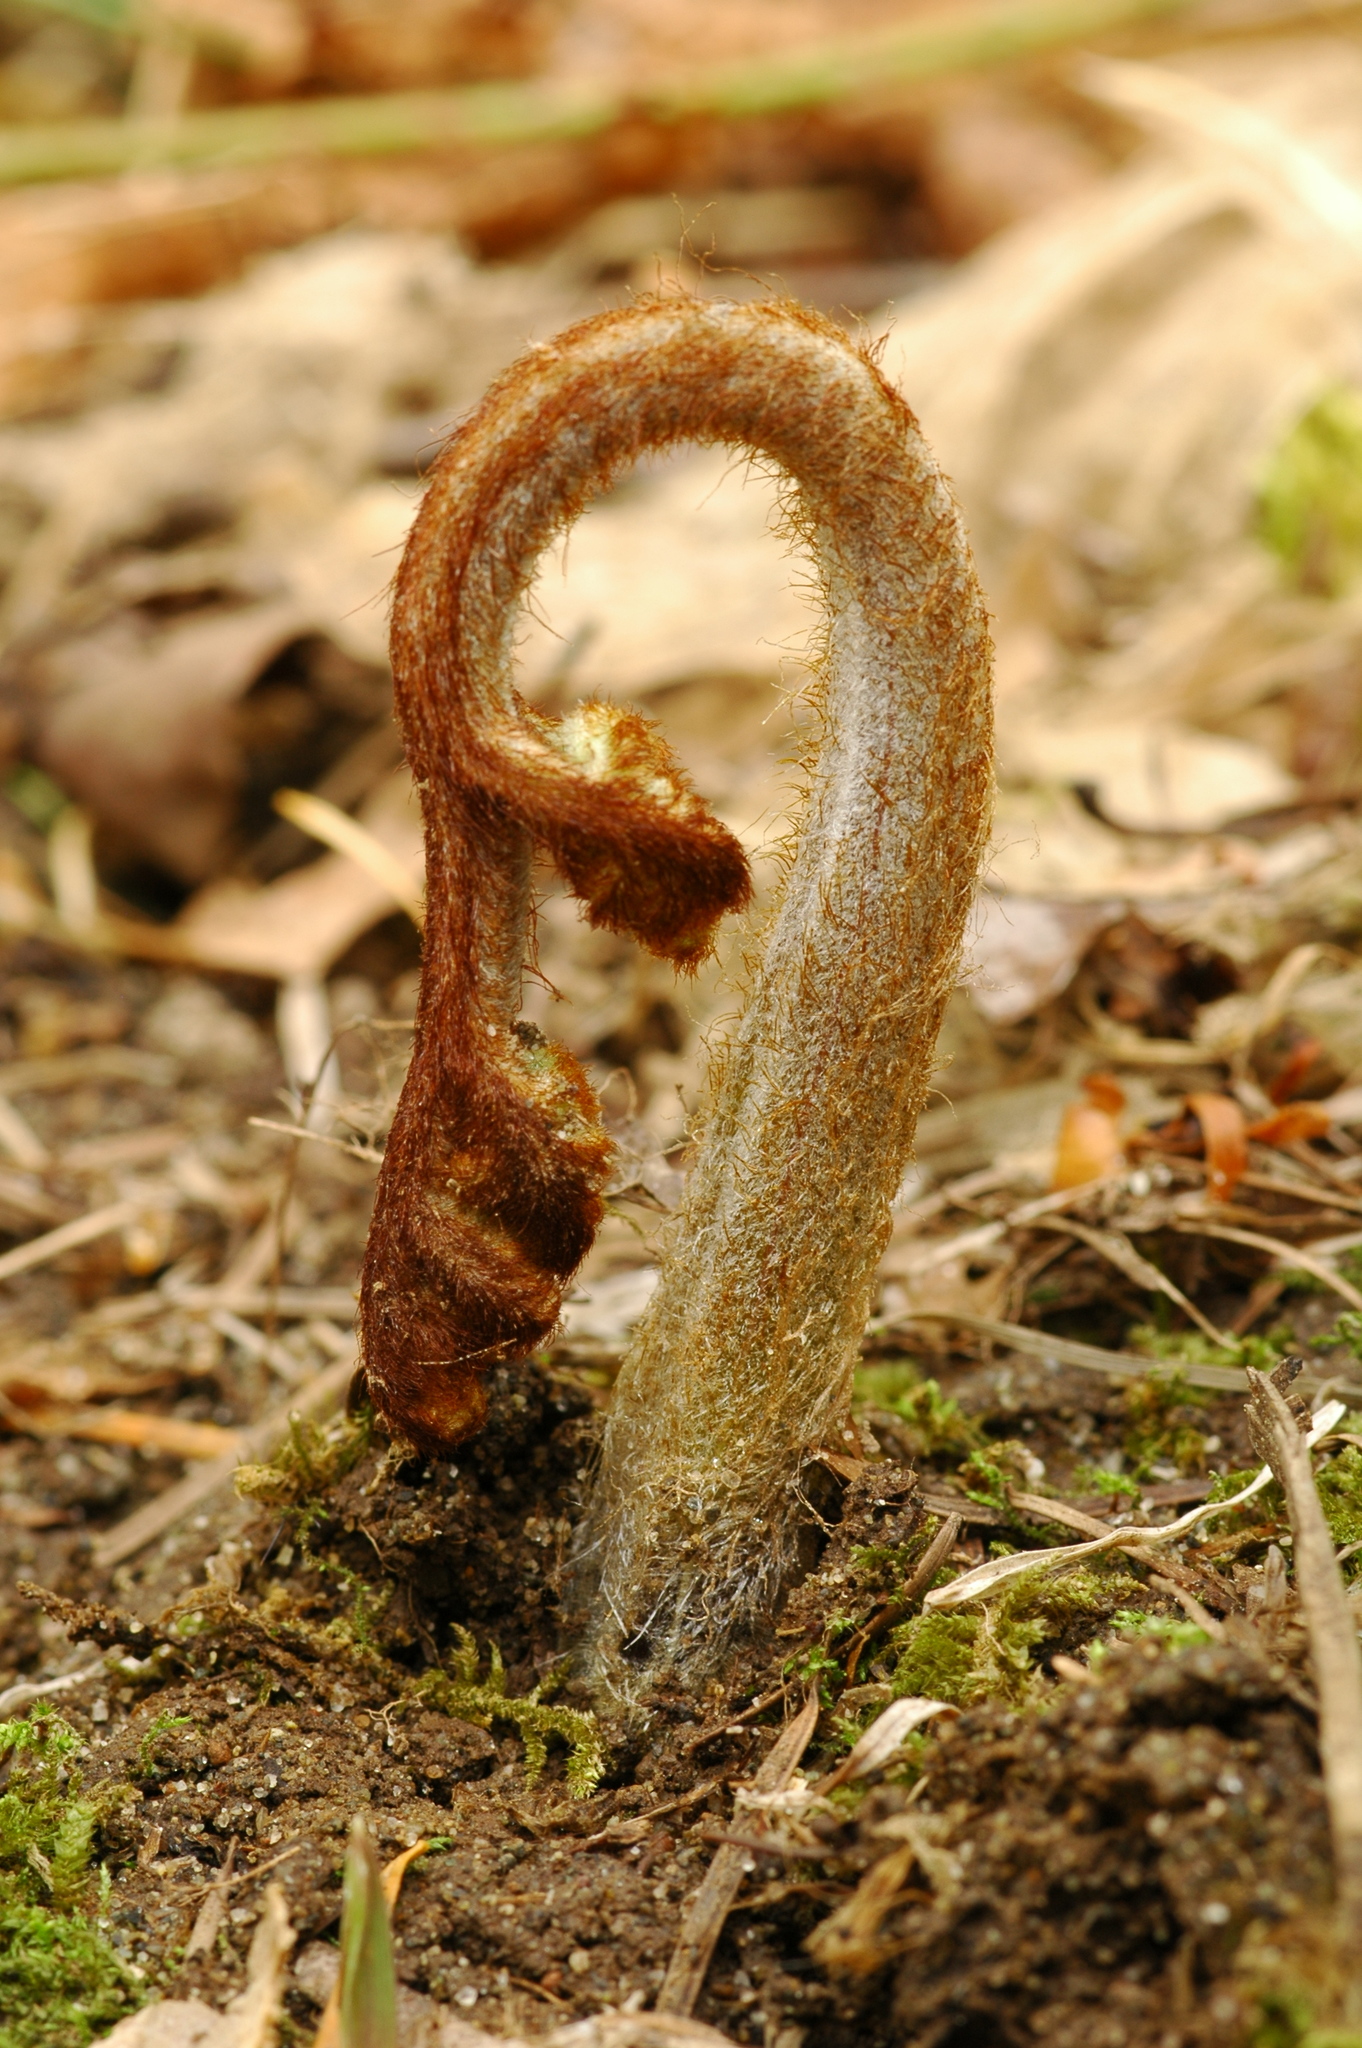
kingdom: Plantae
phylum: Tracheophyta
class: Polypodiopsida
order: Polypodiales
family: Dennstaedtiaceae
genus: Pteridium
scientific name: Pteridium aquilinum
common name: Bracken
